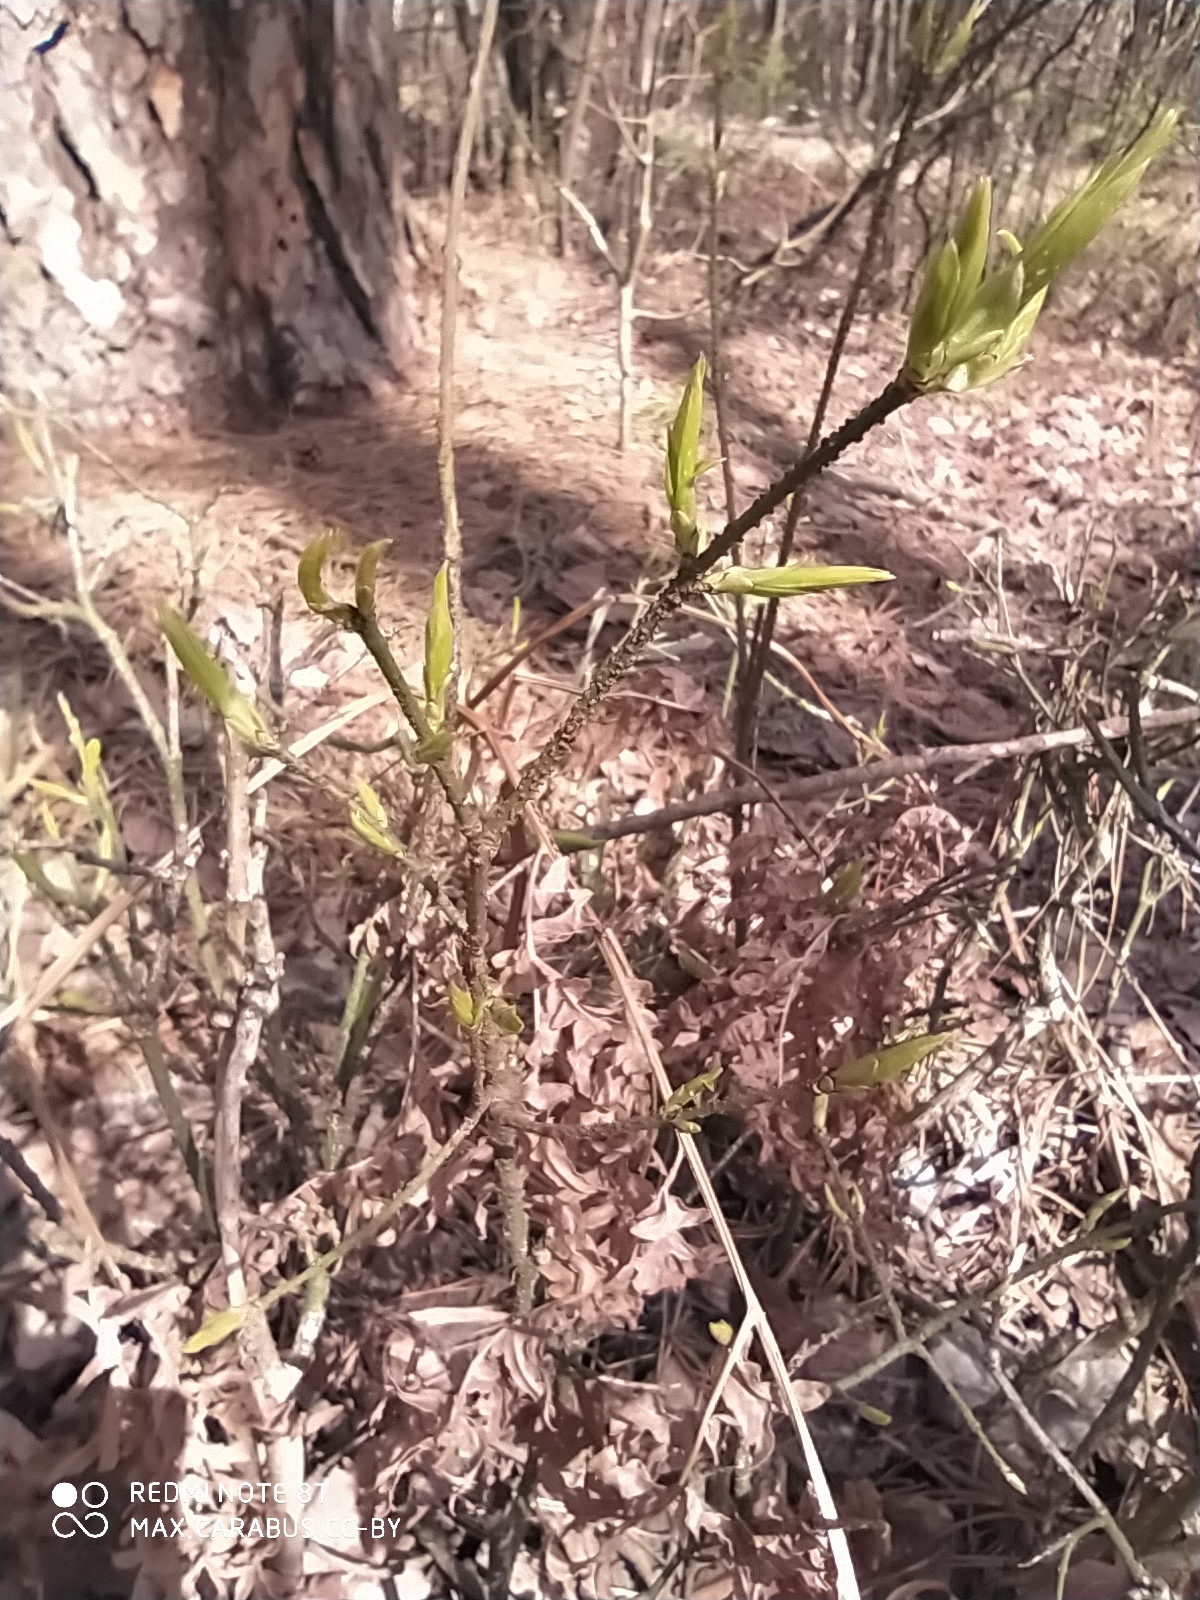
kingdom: Plantae
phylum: Tracheophyta
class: Magnoliopsida
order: Celastrales
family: Celastraceae
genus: Euonymus
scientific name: Euonymus verrucosus
